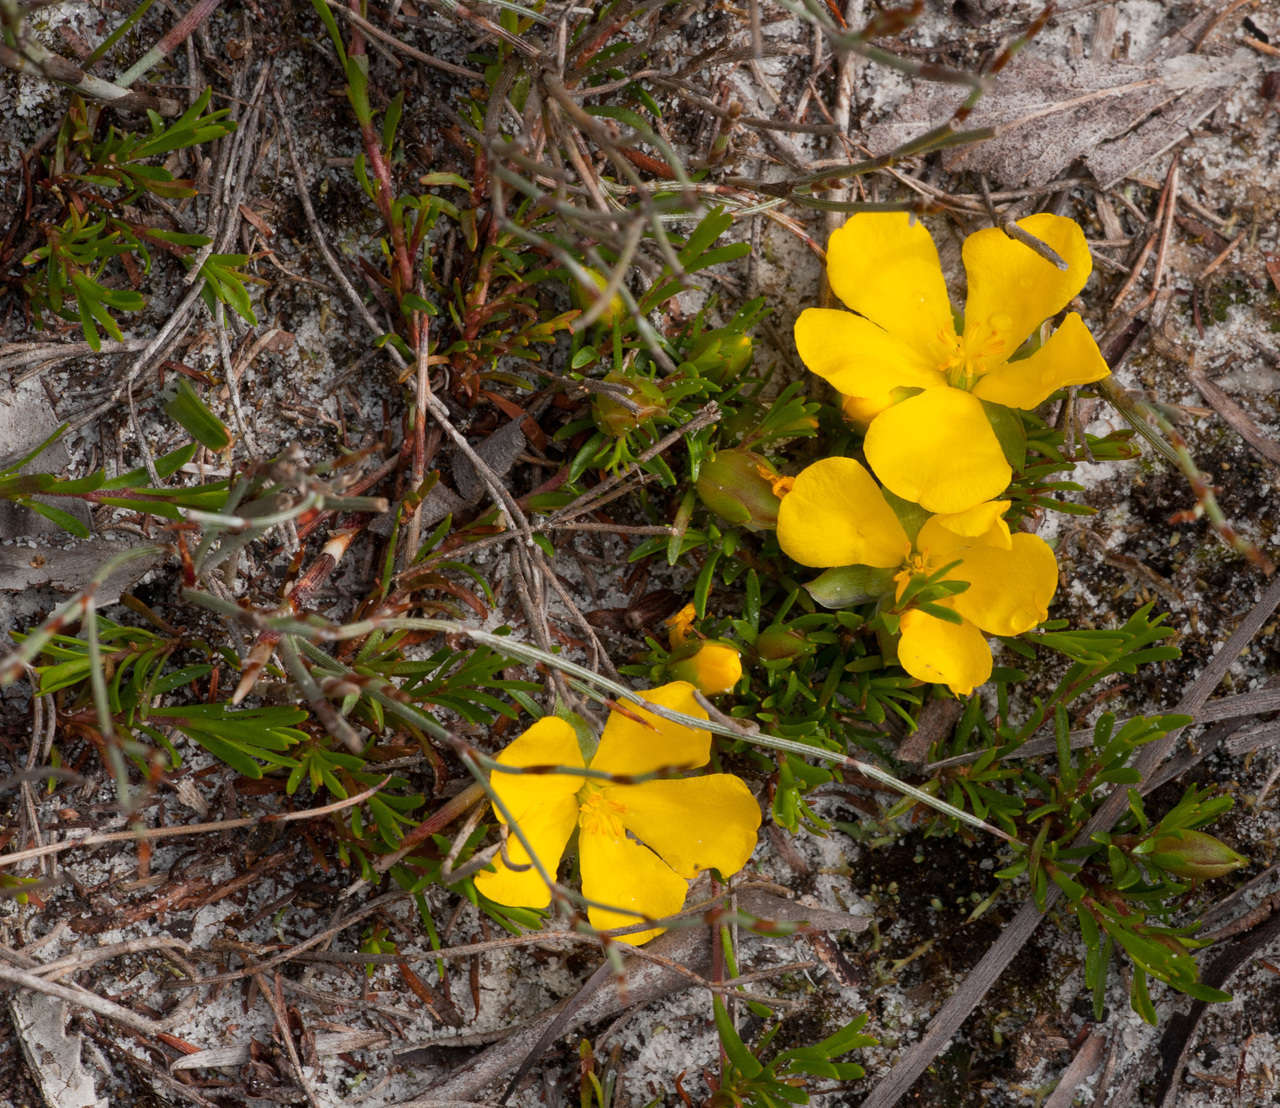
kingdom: Plantae
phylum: Tracheophyta
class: Magnoliopsida
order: Dilleniales
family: Dilleniaceae
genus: Hibbertia
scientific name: Hibbertia procumbens
